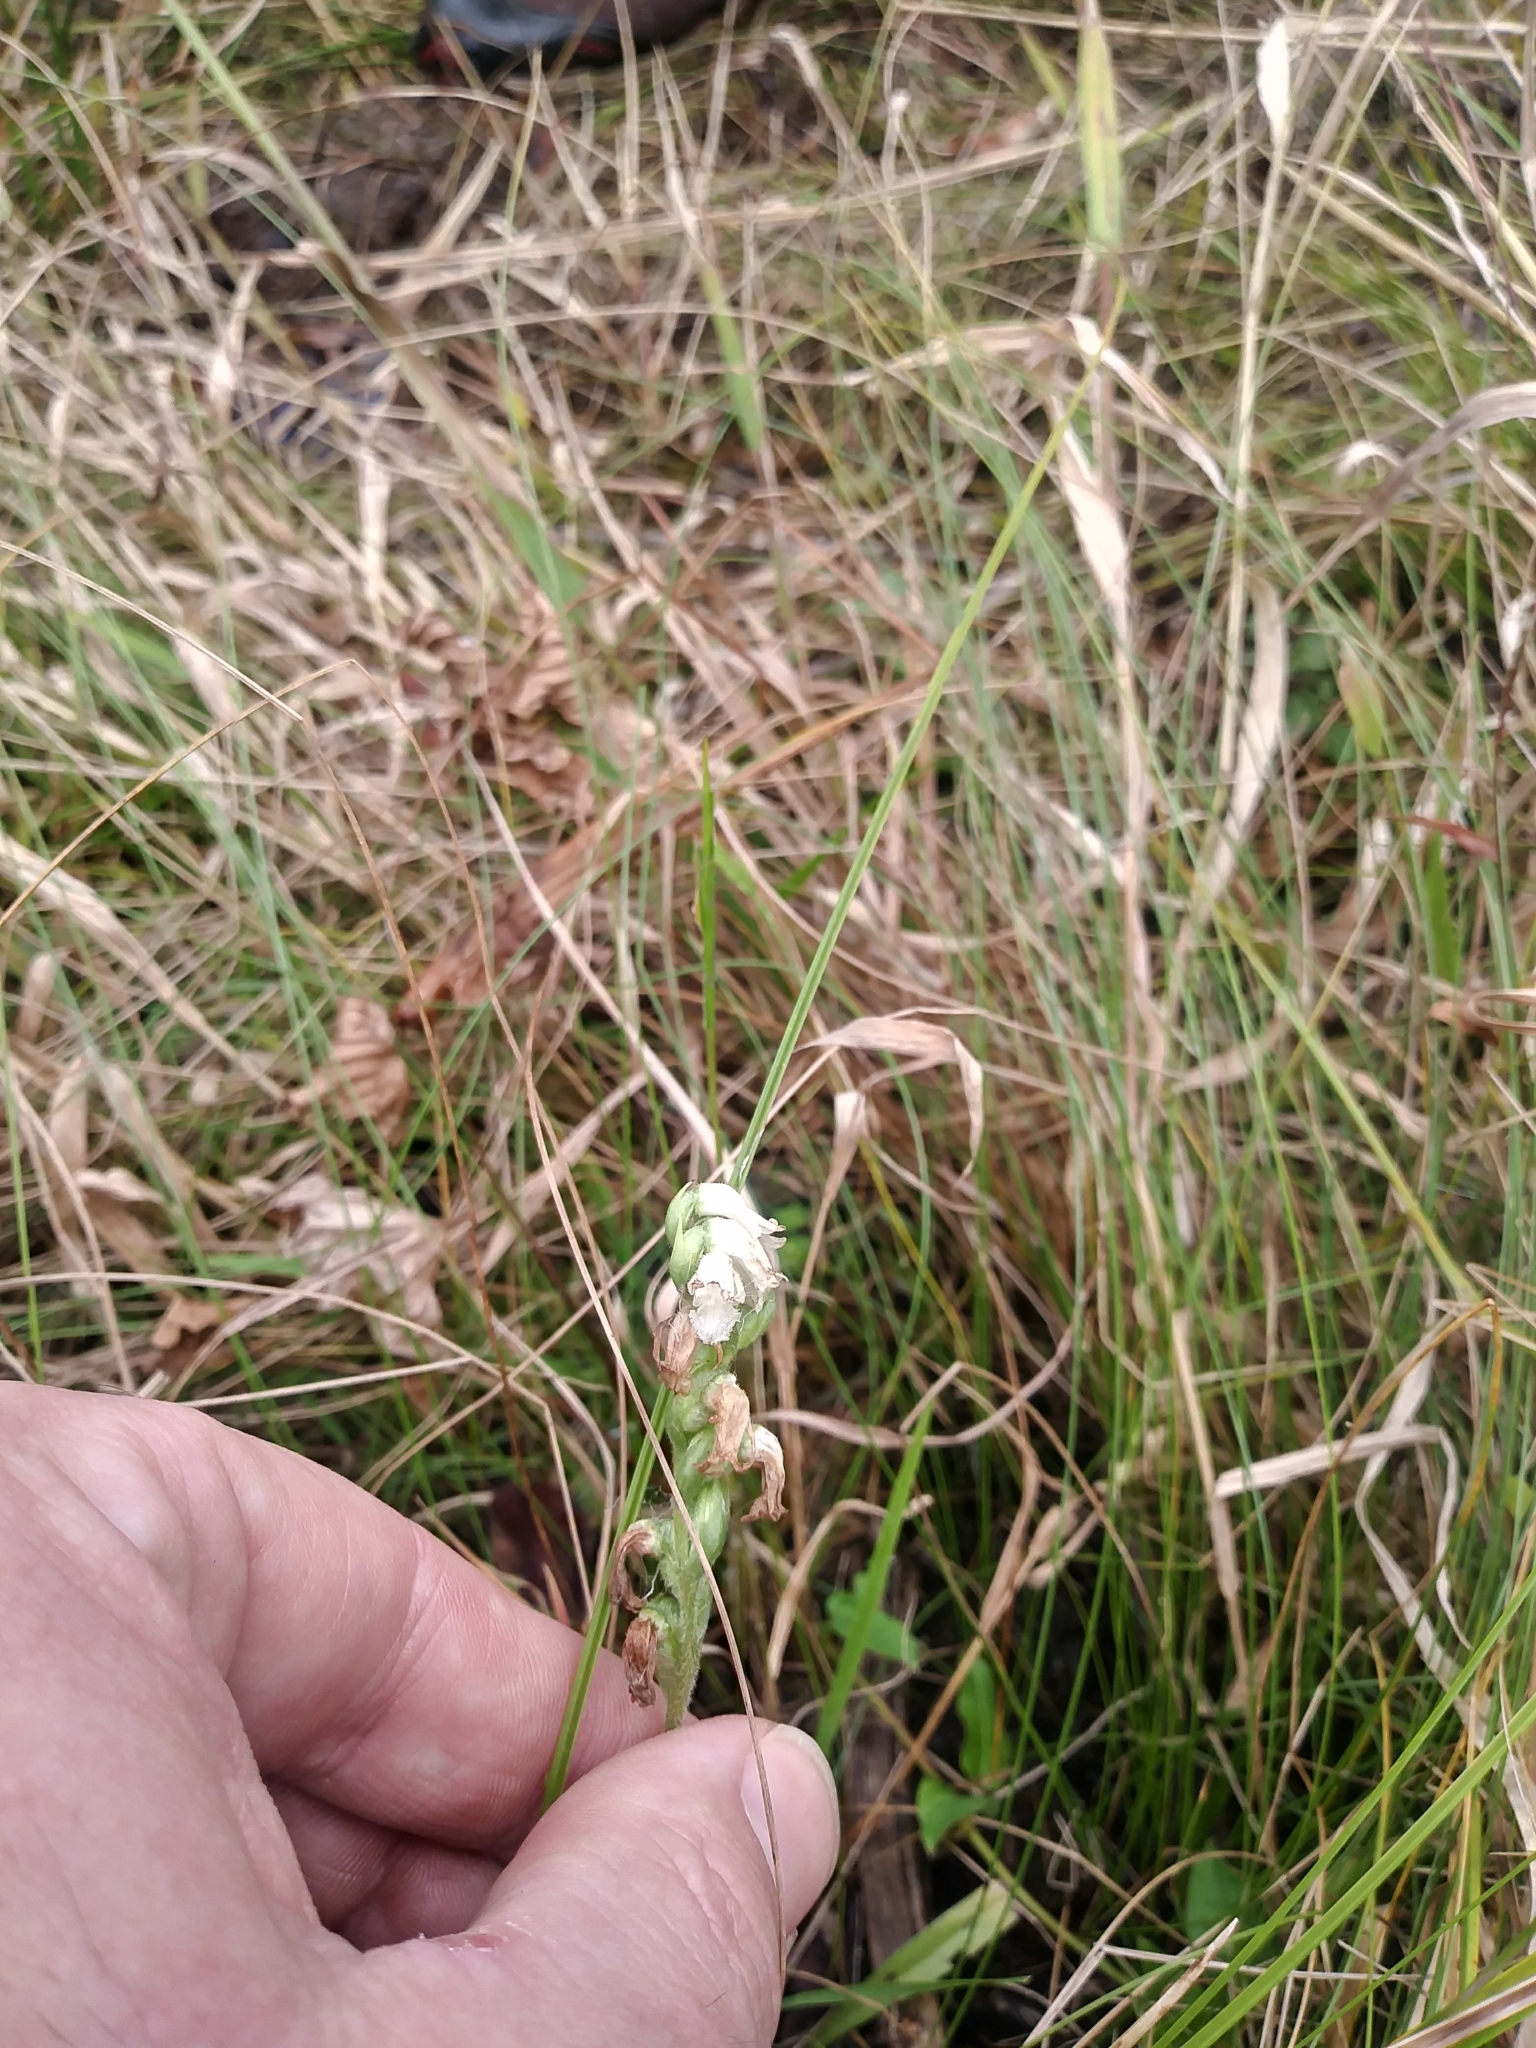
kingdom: Plantae
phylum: Tracheophyta
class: Liliopsida
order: Asparagales
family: Orchidaceae
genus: Spiranthes
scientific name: Spiranthes cernua
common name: Dropping ladies'-tresses
